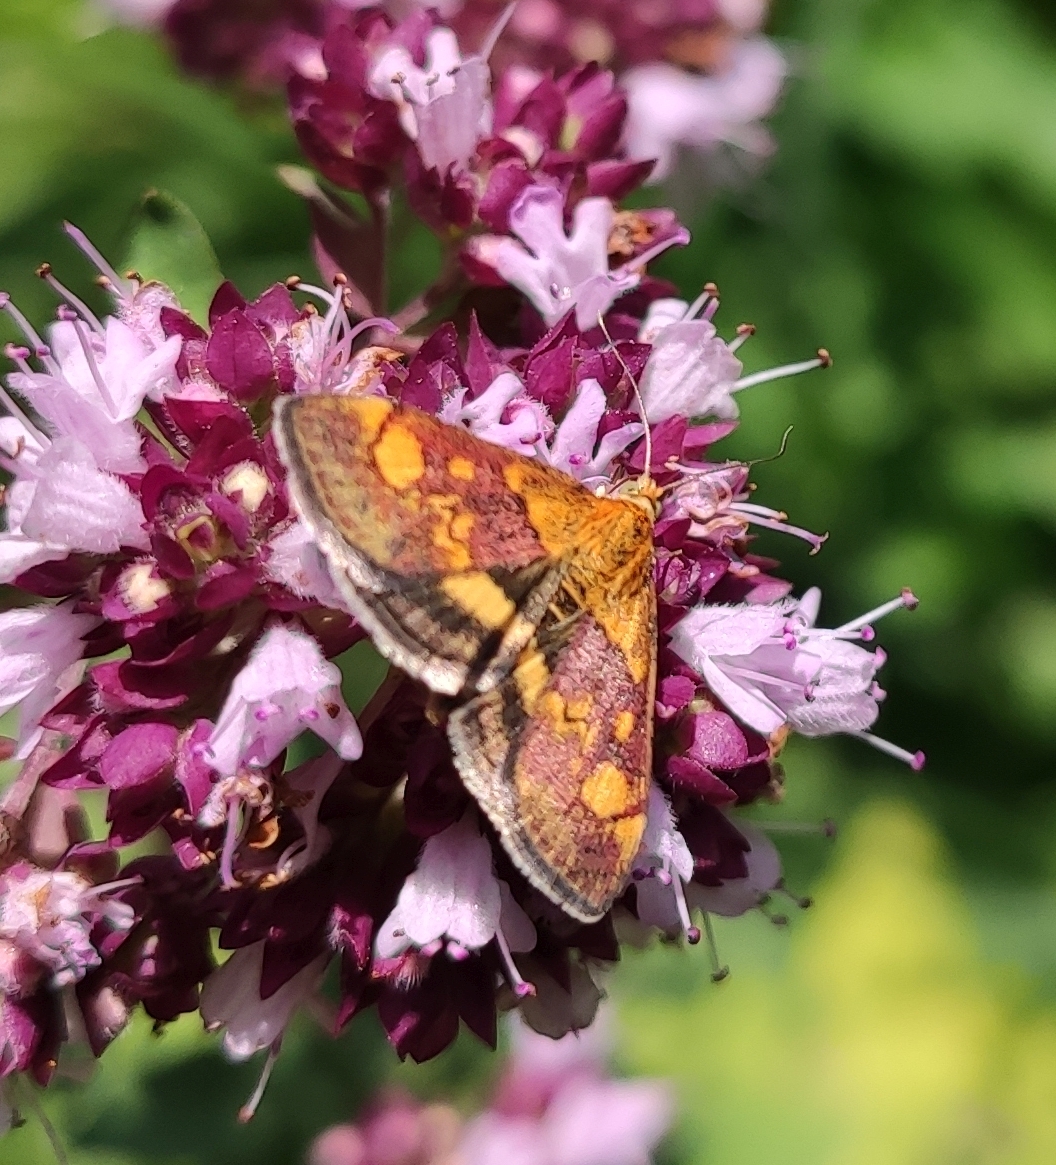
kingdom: Animalia
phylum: Arthropoda
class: Insecta
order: Lepidoptera
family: Crambidae
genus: Pyrausta
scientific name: Pyrausta aurata
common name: Small purple & gold
